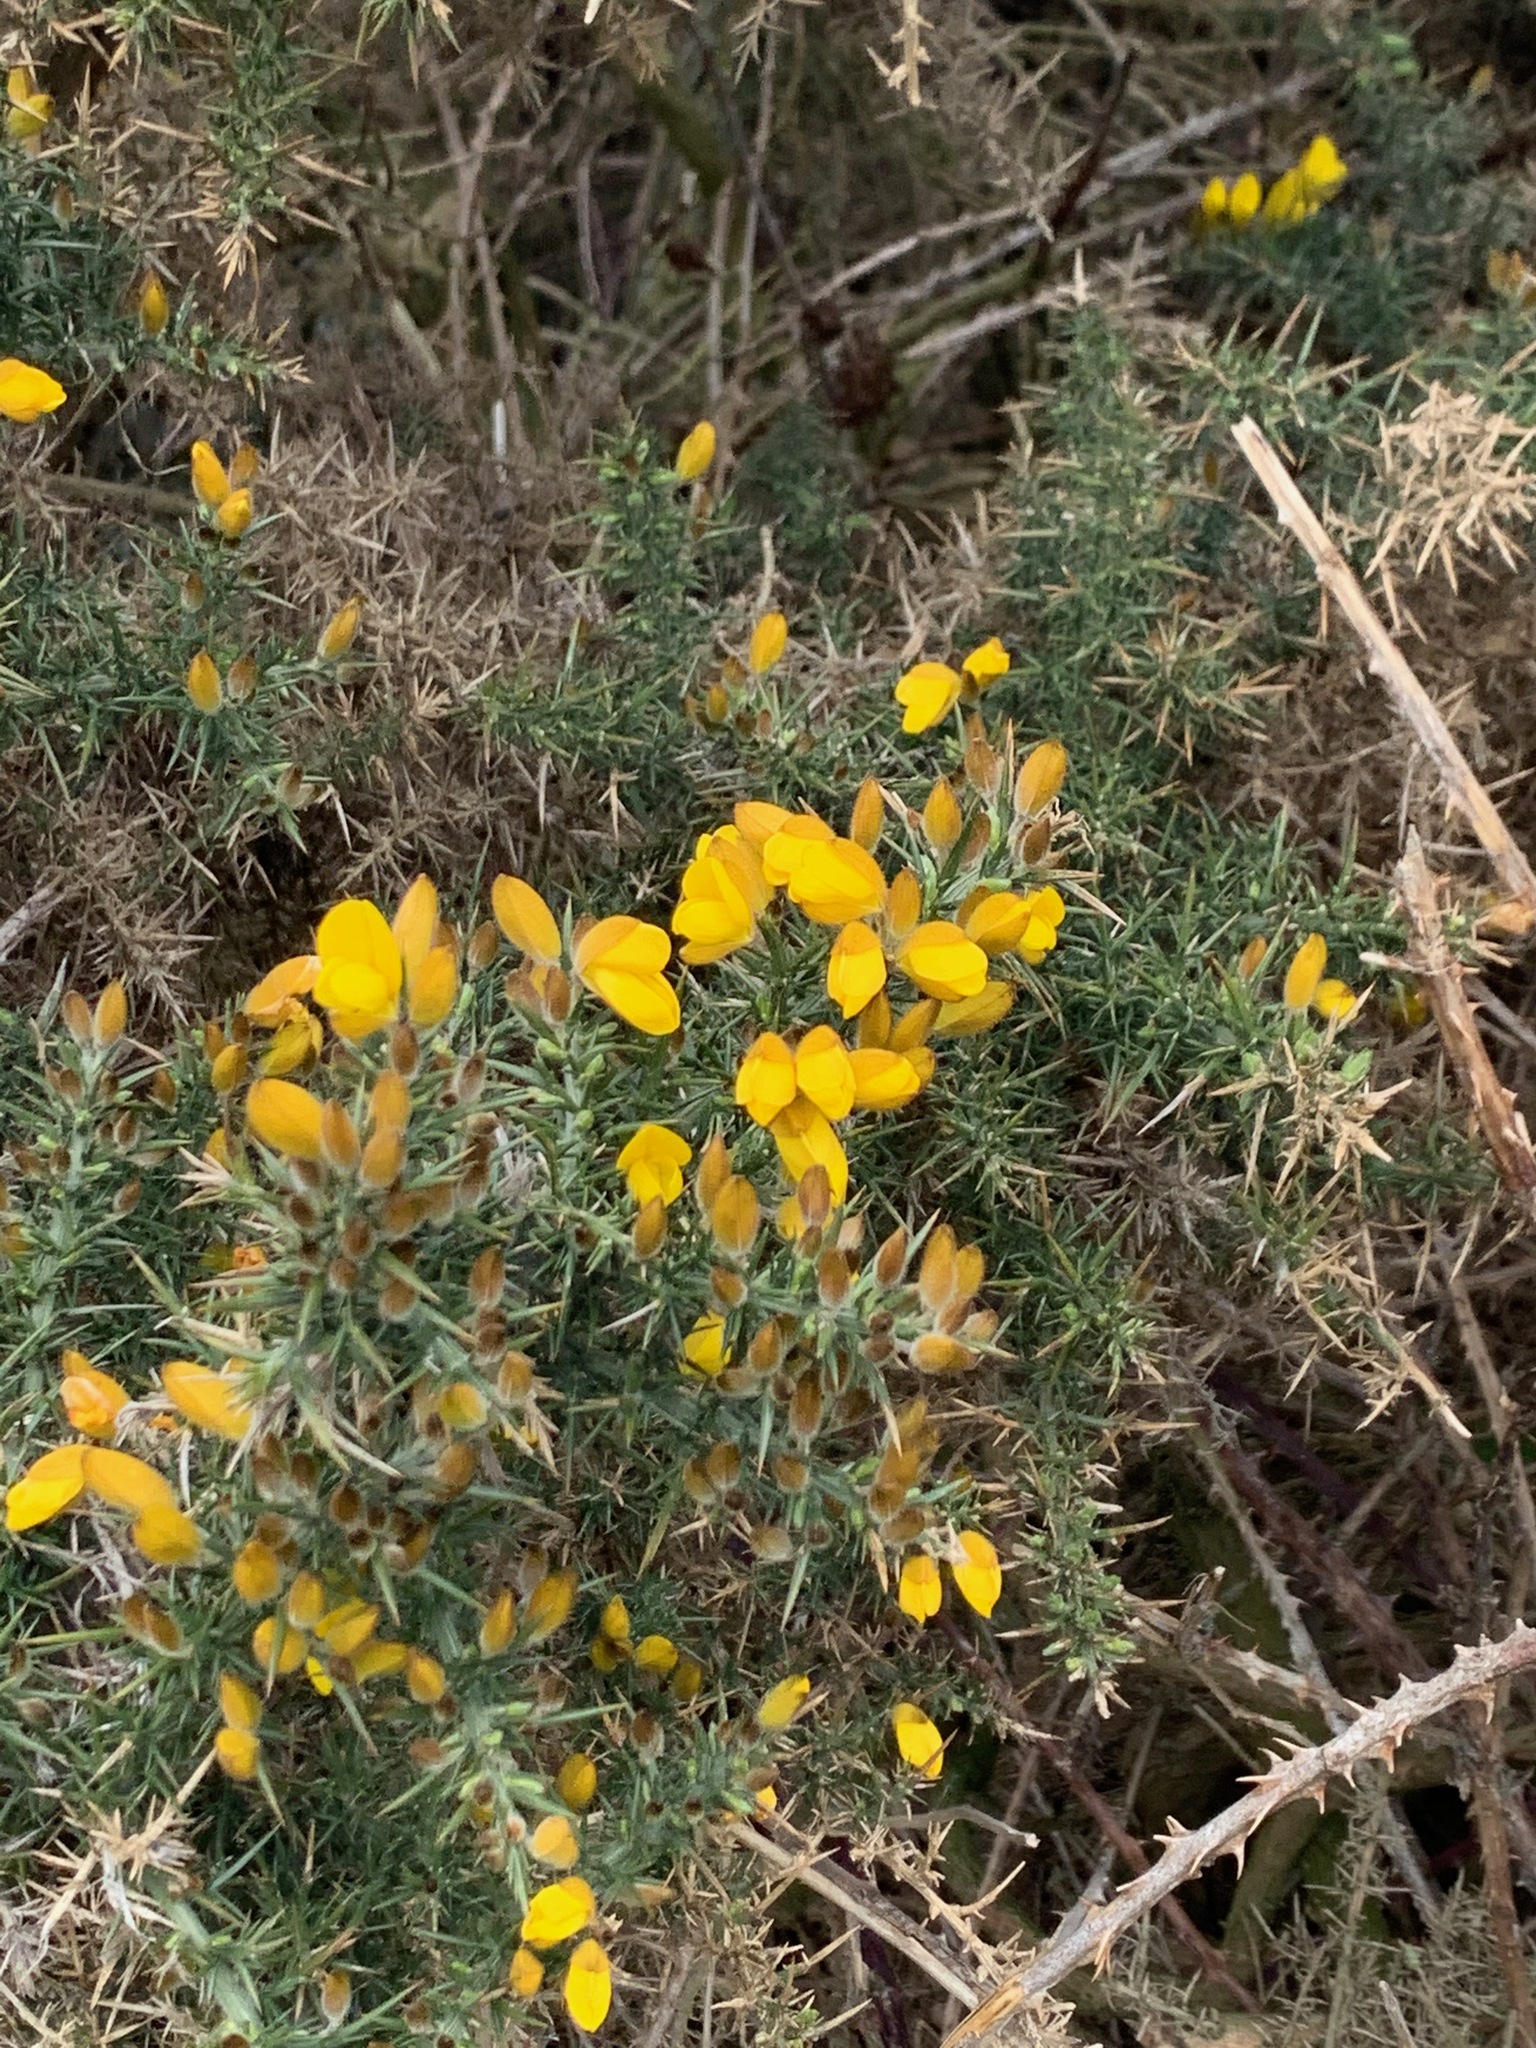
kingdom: Plantae
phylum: Tracheophyta
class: Magnoliopsida
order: Fabales
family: Fabaceae
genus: Ulex
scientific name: Ulex europaeus
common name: Common gorse
